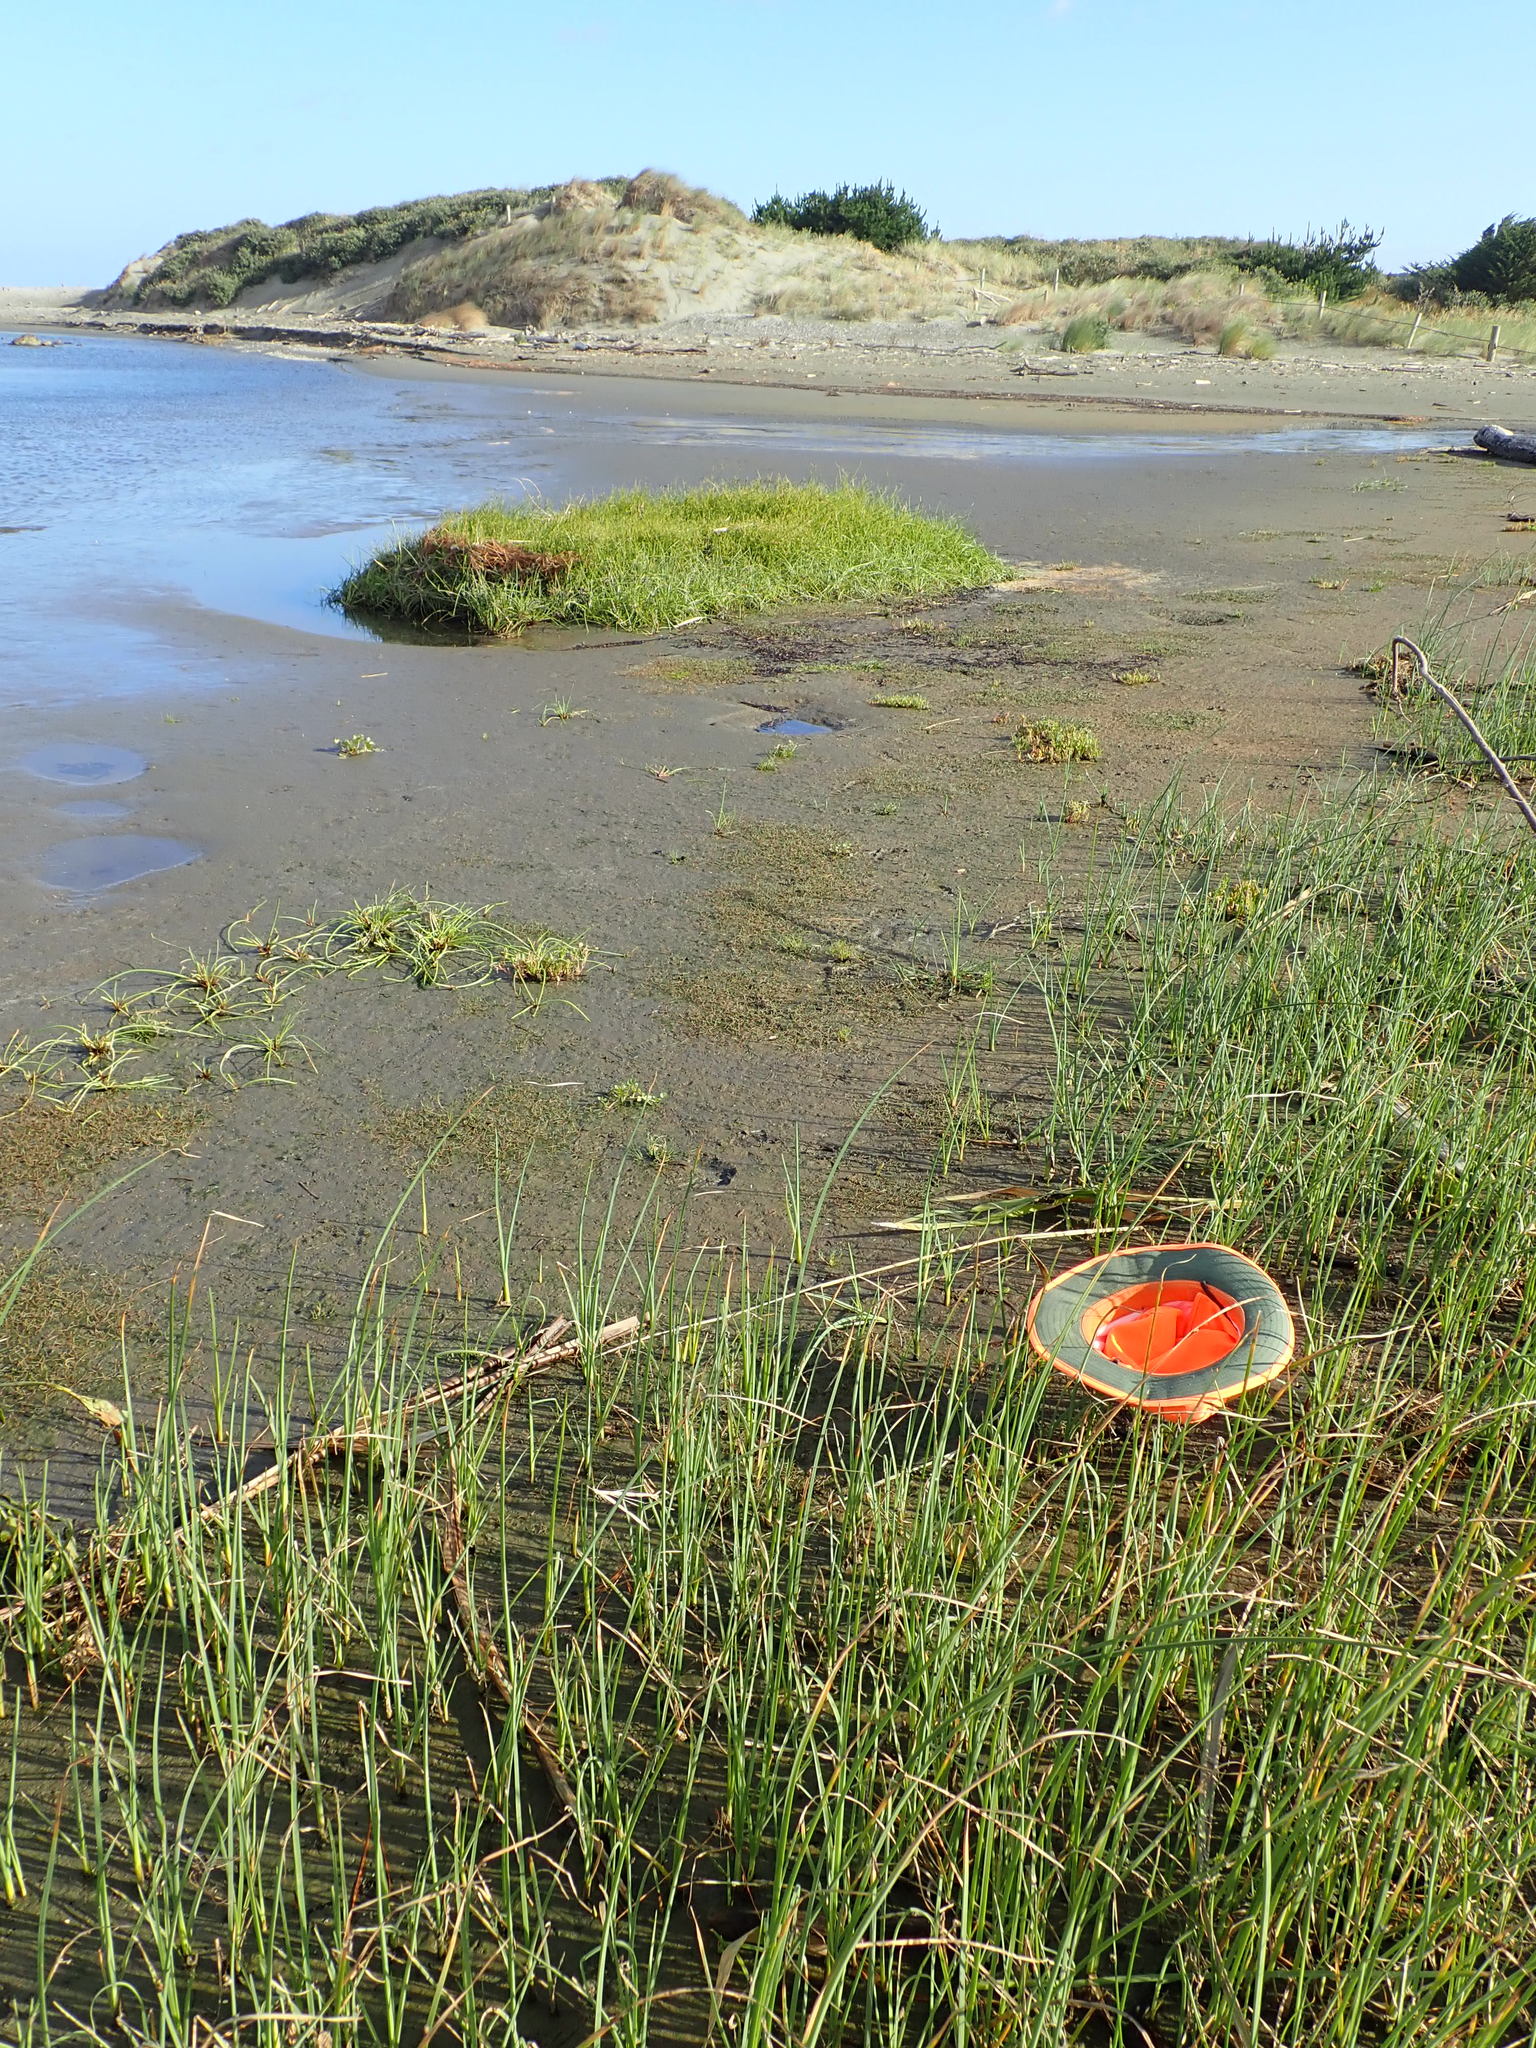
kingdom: Plantae
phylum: Tracheophyta
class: Magnoliopsida
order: Saxifragales
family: Haloragaceae
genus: Myriophyllum
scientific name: Myriophyllum aquaticum
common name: Parrot's feather
